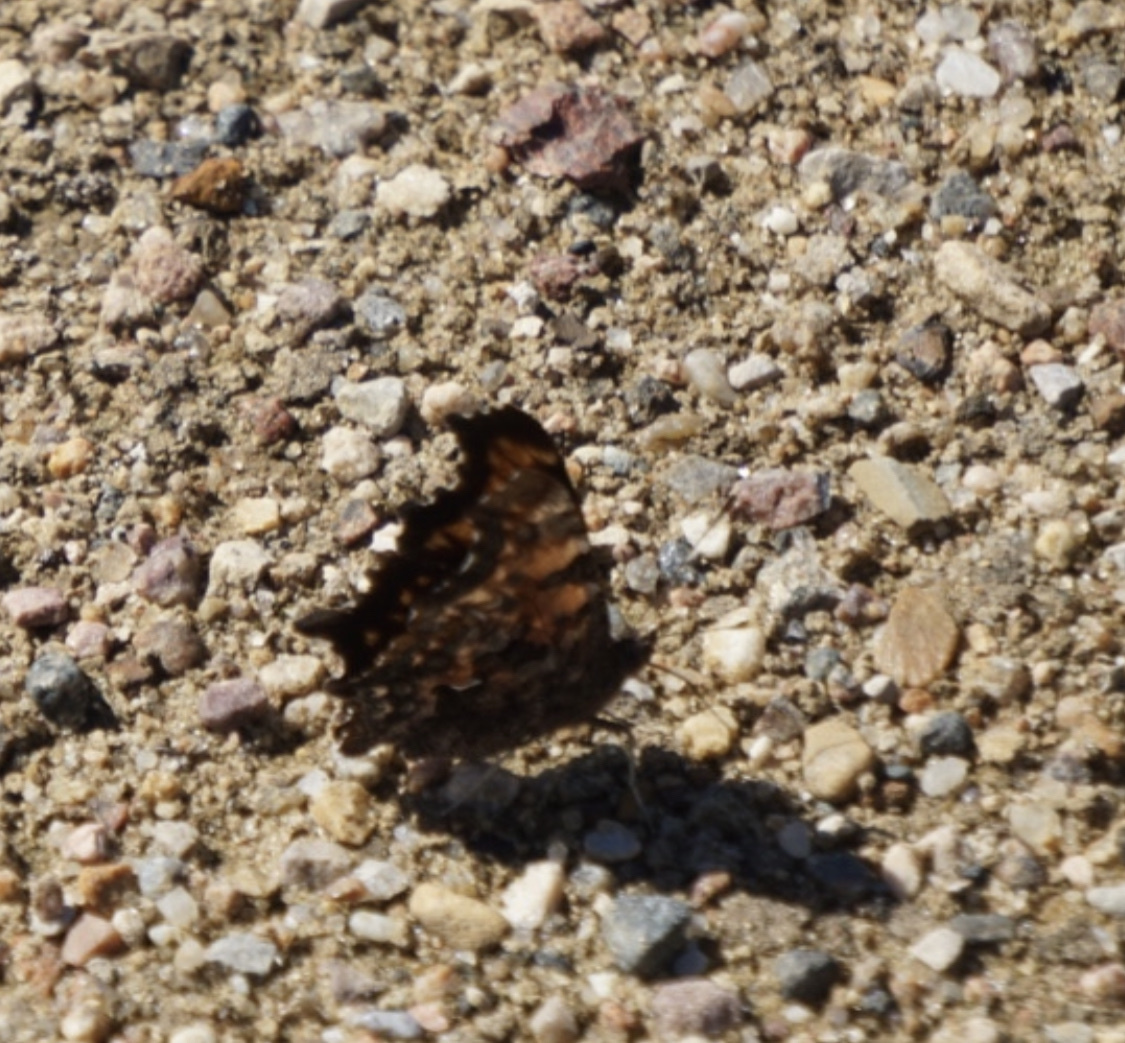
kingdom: Animalia
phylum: Arthropoda
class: Insecta
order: Lepidoptera
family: Nymphalidae
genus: Polygonia
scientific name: Polygonia faunus
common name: Green comma
